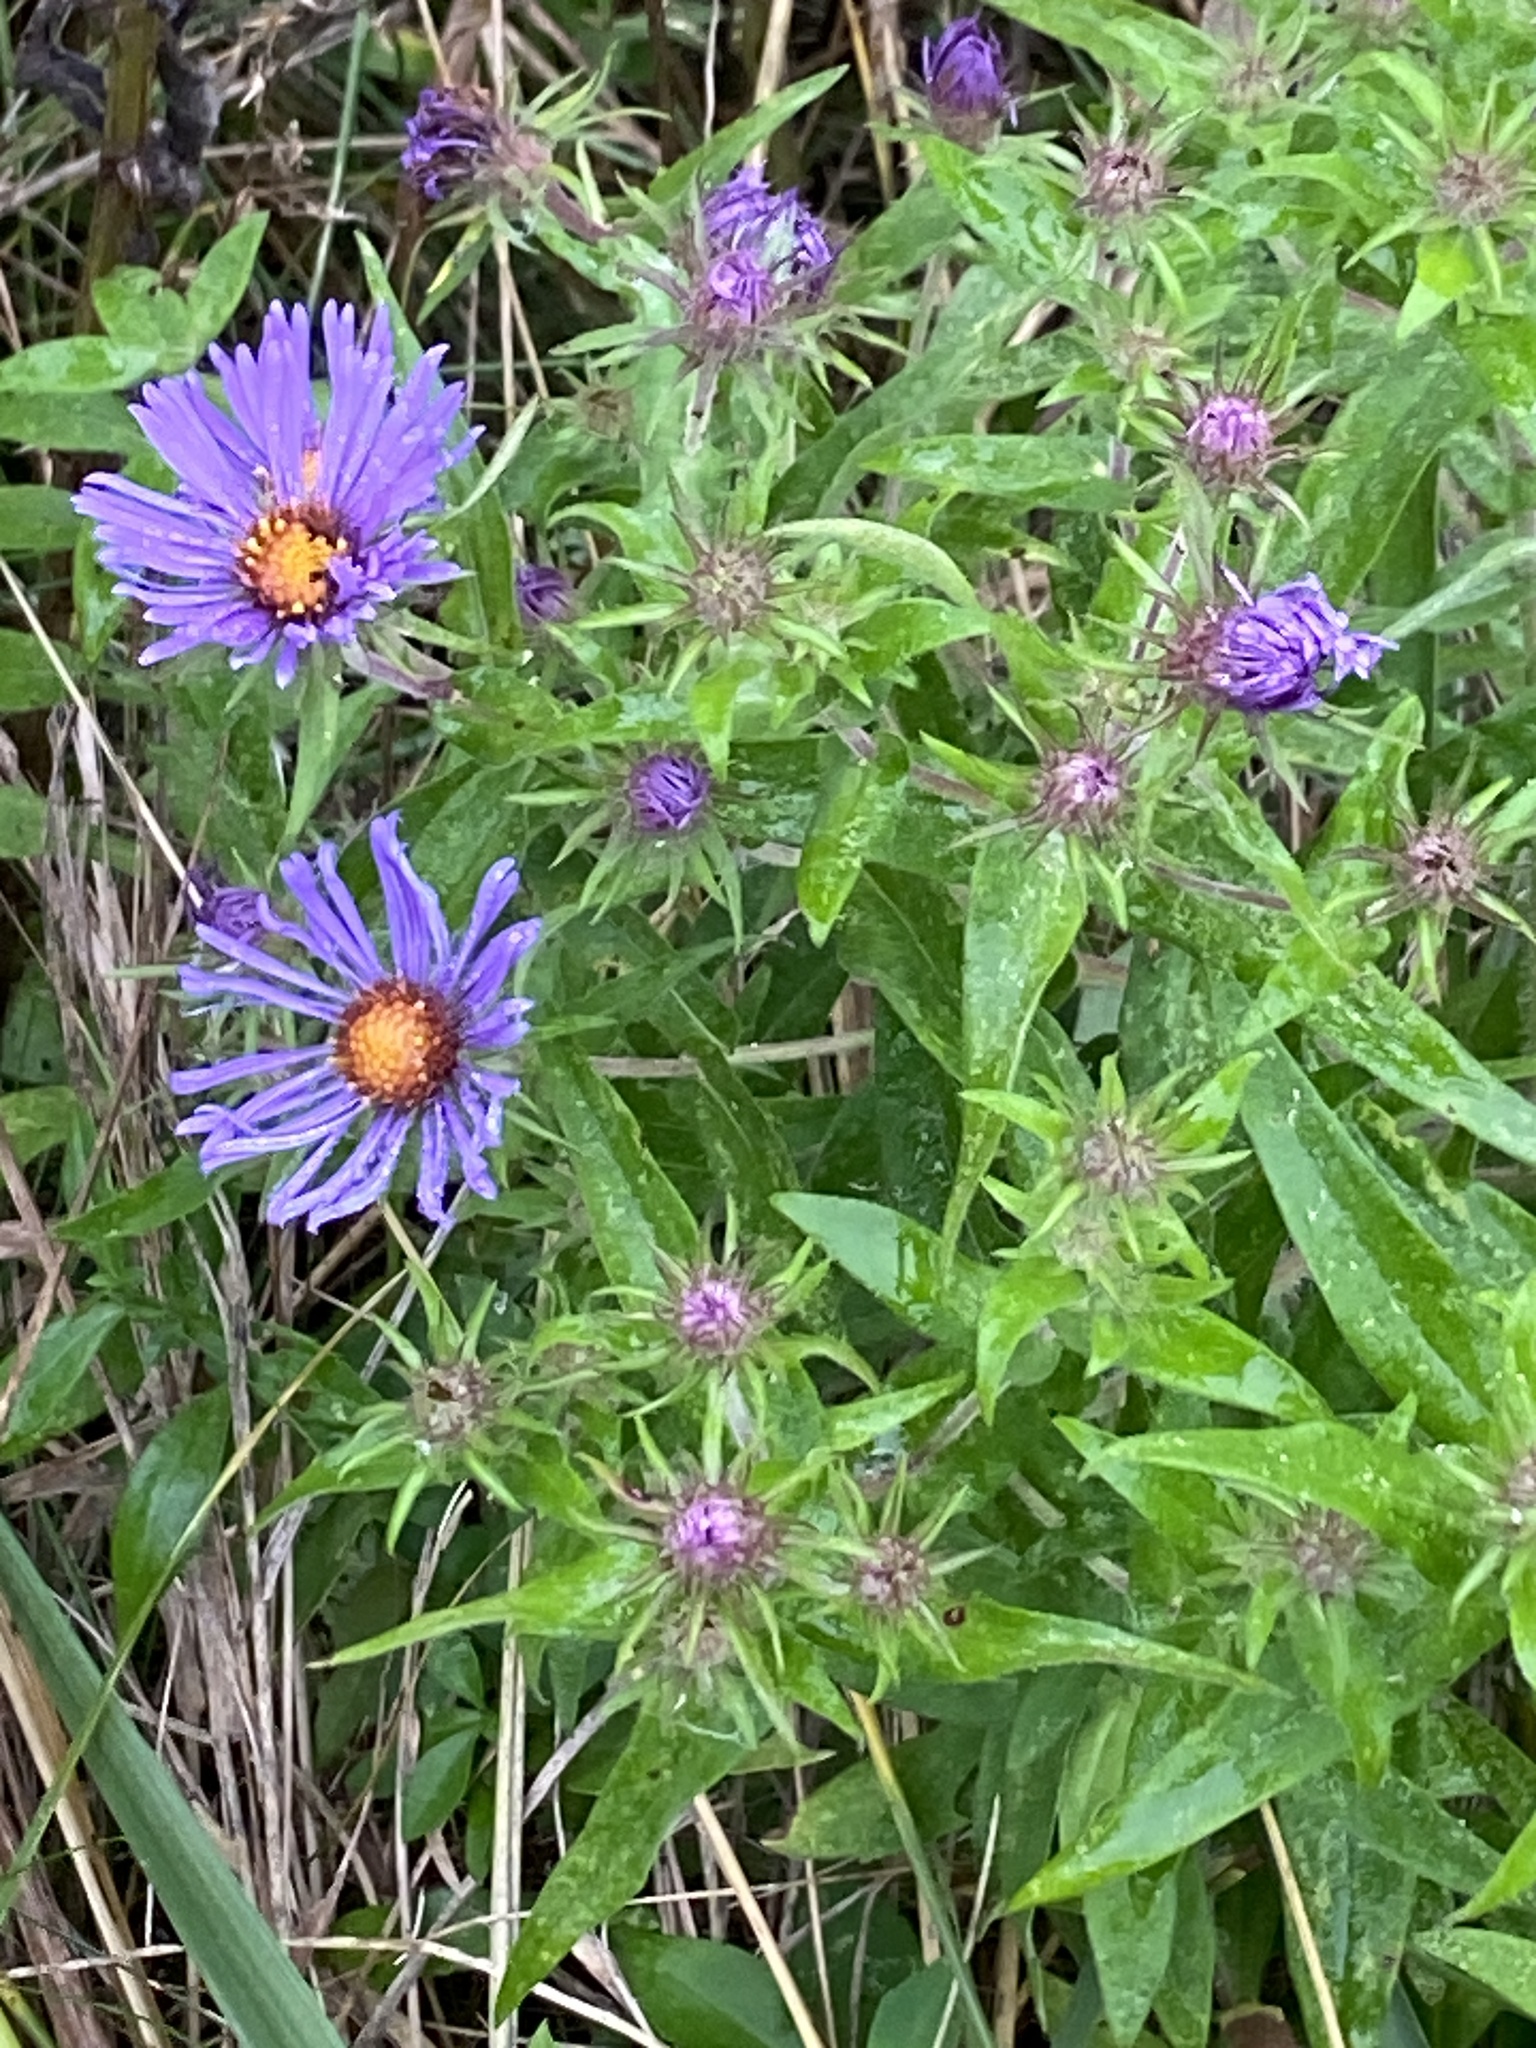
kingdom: Plantae
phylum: Tracheophyta
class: Magnoliopsida
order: Asterales
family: Asteraceae
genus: Symphyotrichum
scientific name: Symphyotrichum novae-angliae
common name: Michaelmas daisy
